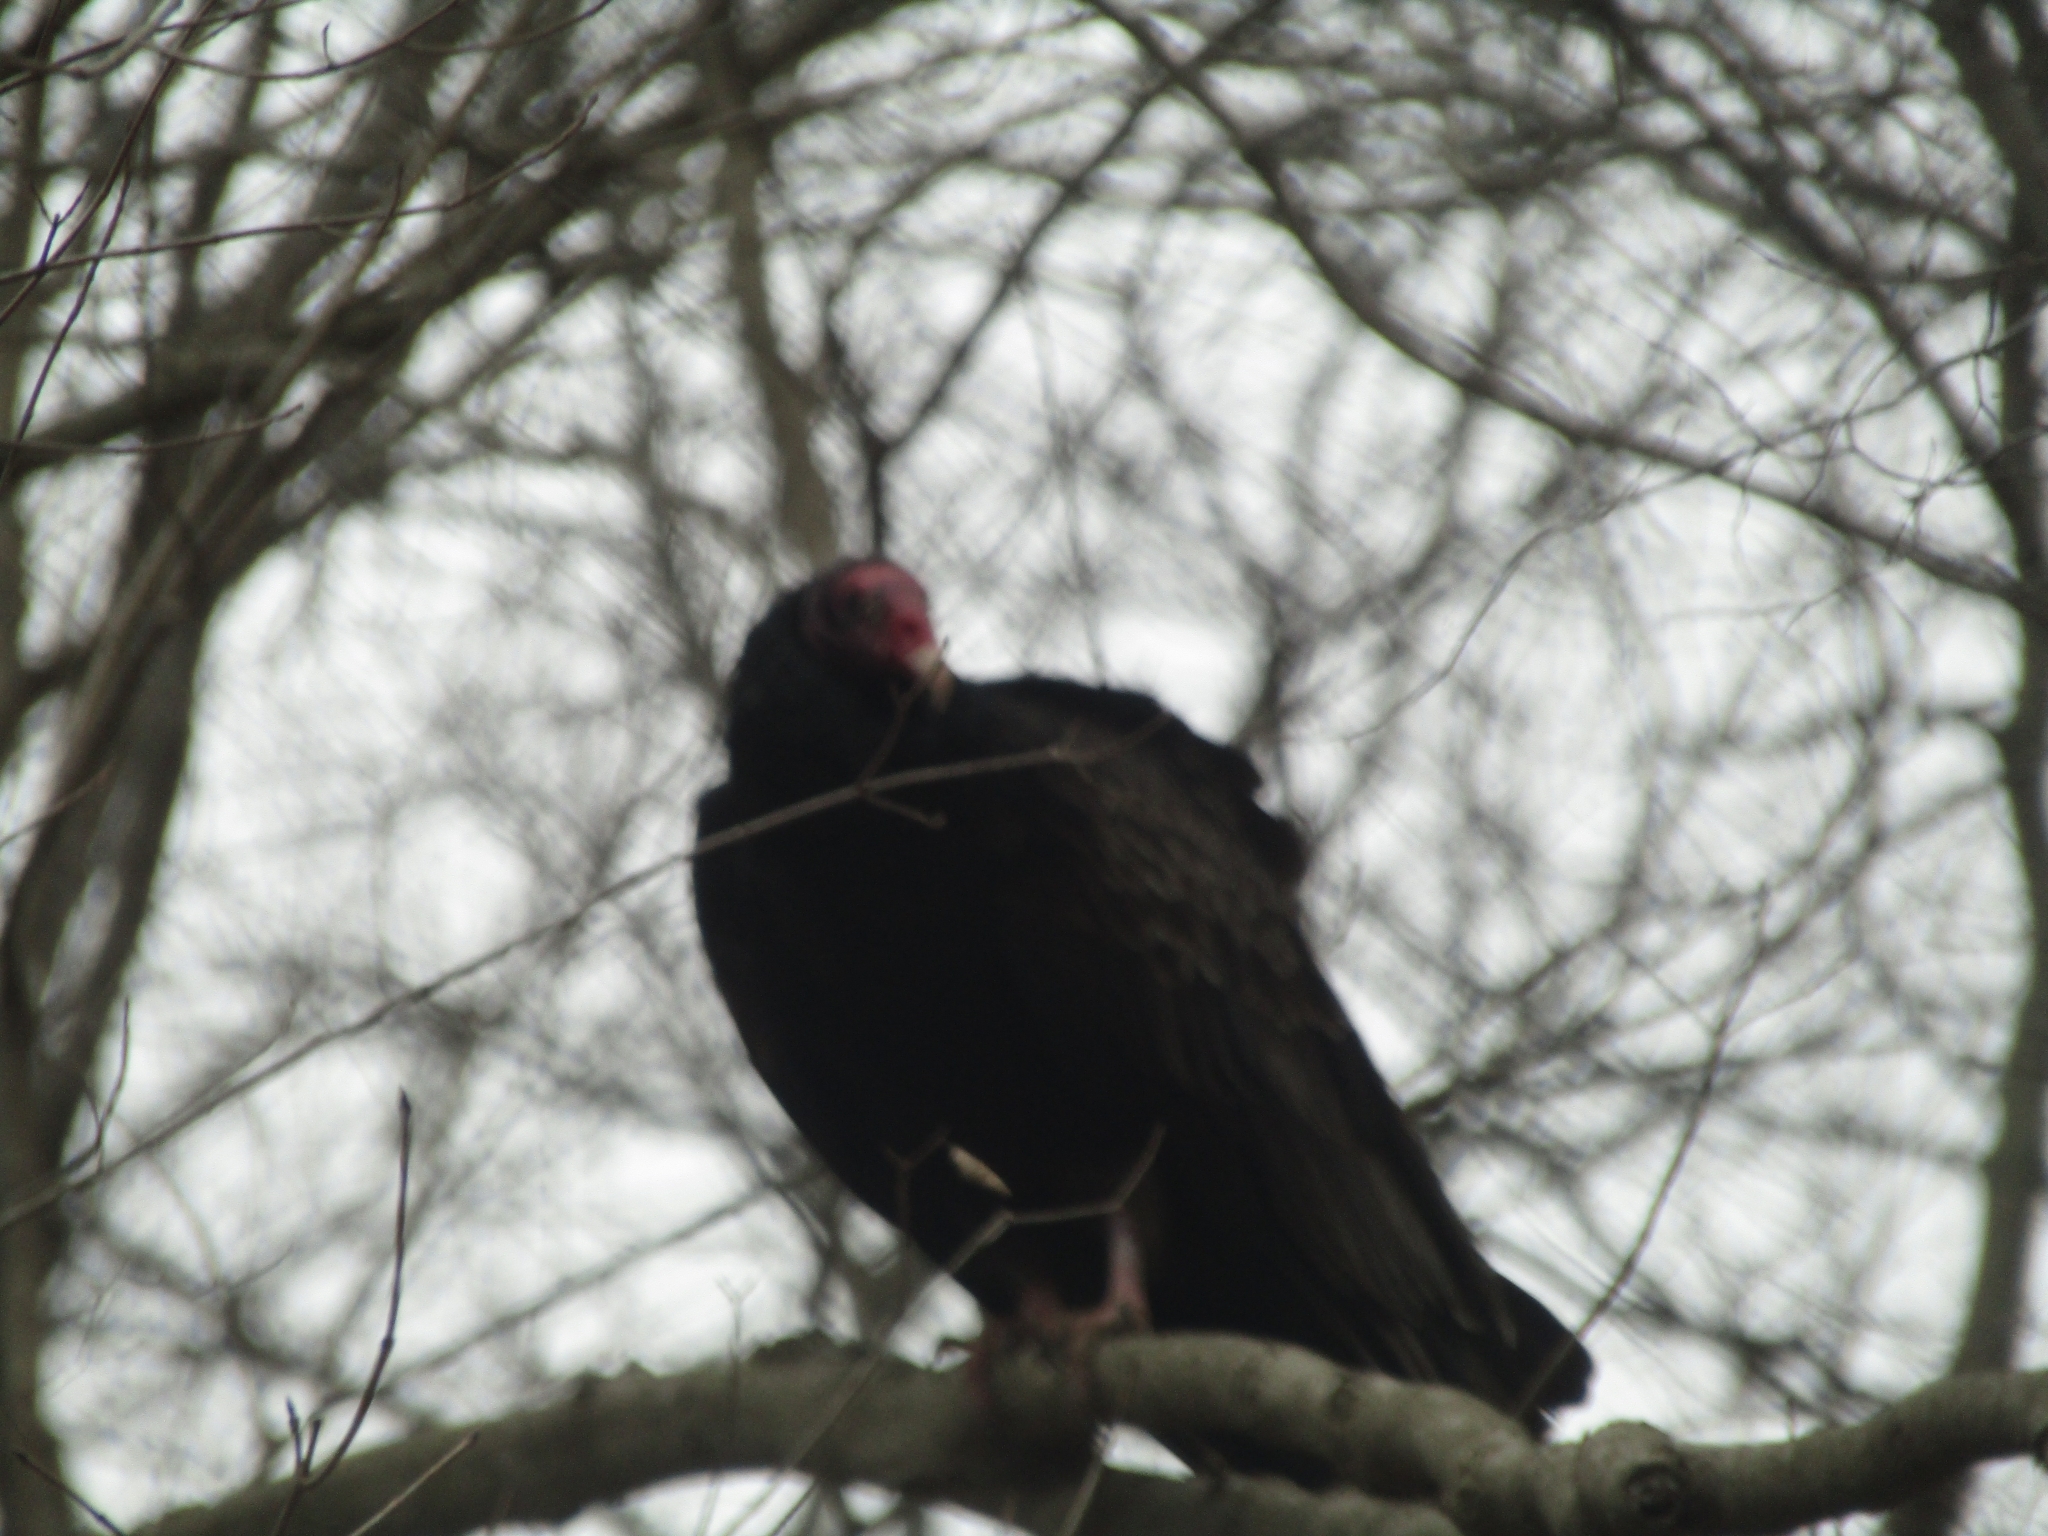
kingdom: Animalia
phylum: Chordata
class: Aves
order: Accipitriformes
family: Cathartidae
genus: Cathartes
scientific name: Cathartes aura
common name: Turkey vulture
